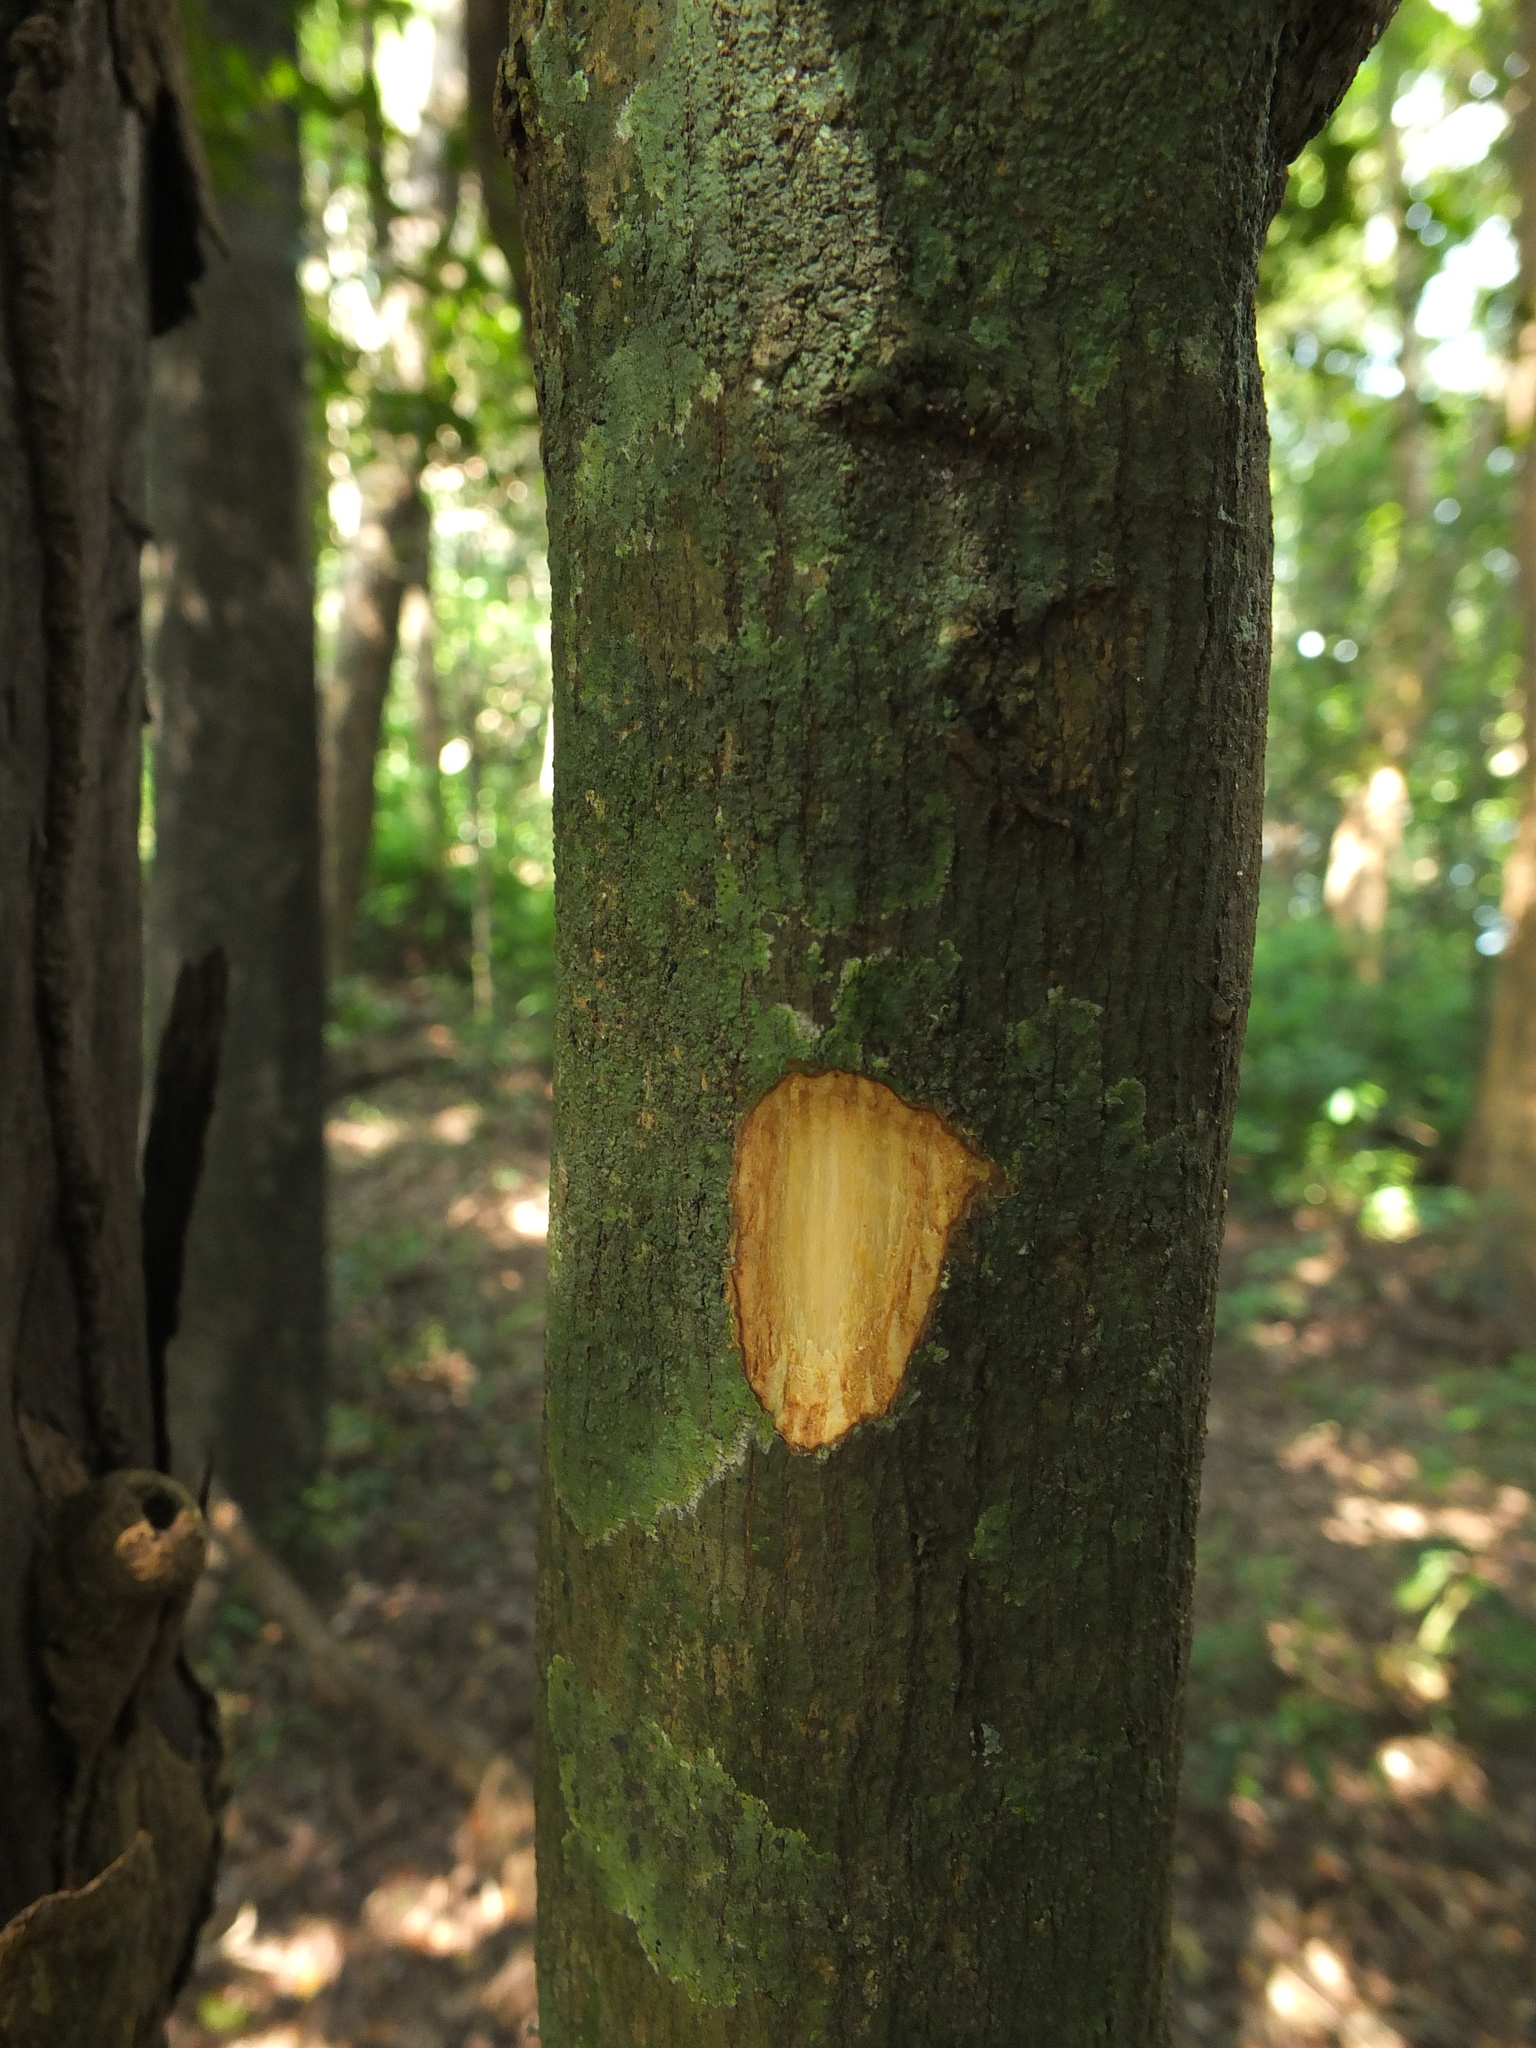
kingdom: Plantae
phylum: Tracheophyta
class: Magnoliopsida
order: Magnoliales
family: Annonaceae
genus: Miliusa
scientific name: Miliusa eriocarpa
